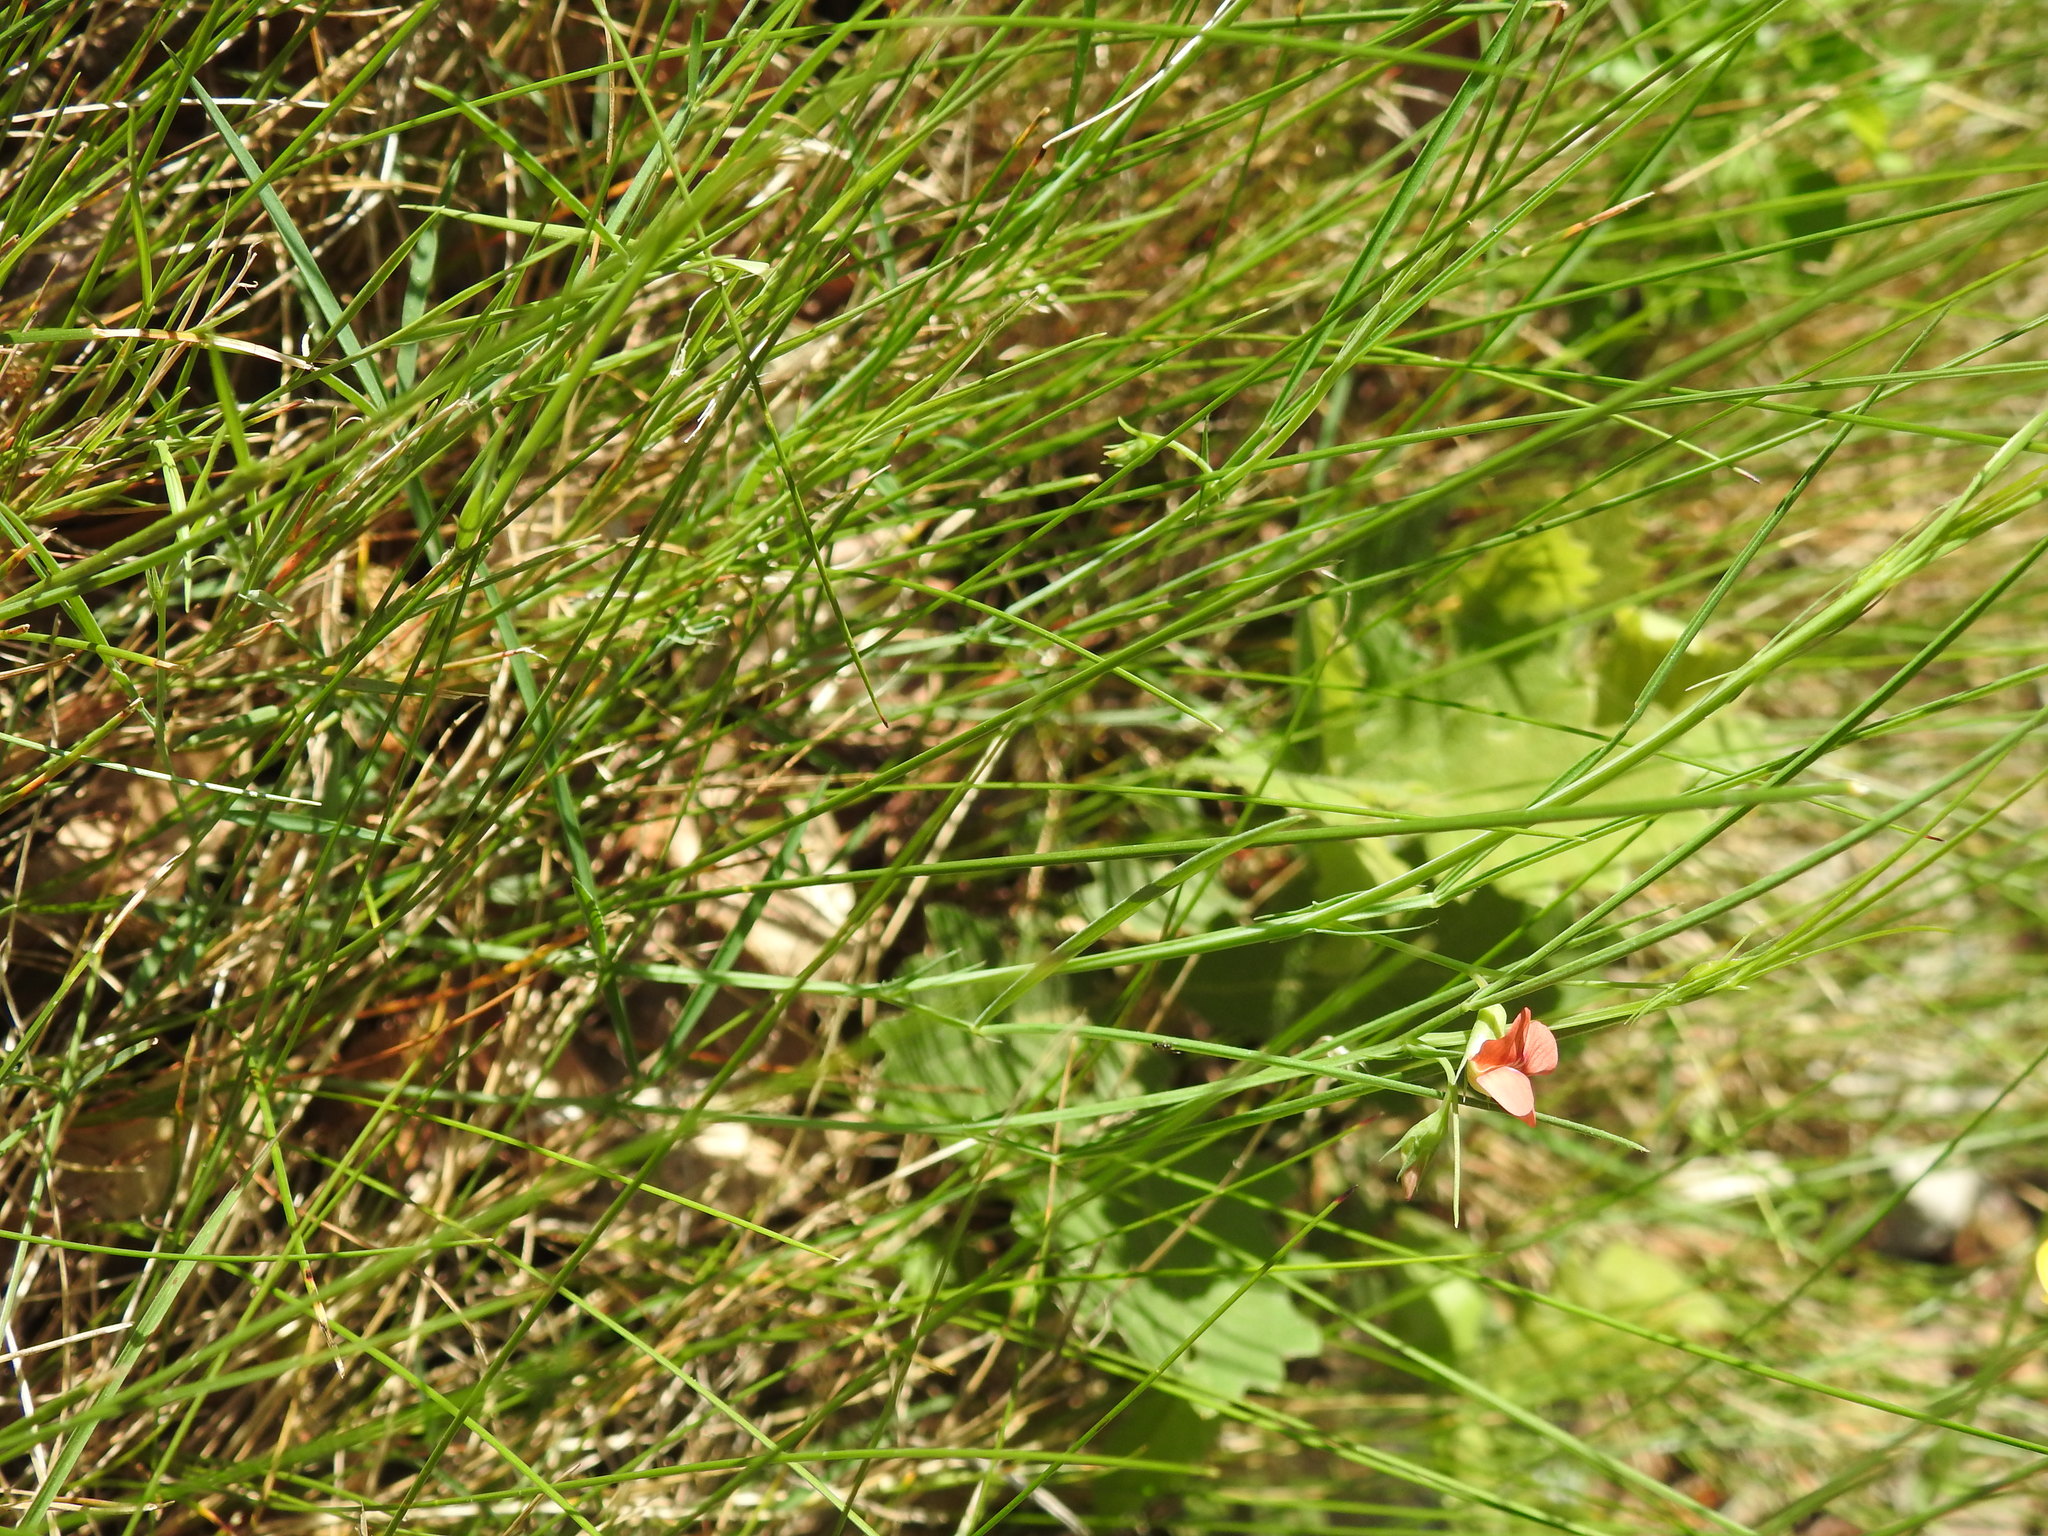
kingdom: Plantae
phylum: Tracheophyta
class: Magnoliopsida
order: Fabales
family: Fabaceae
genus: Lathyrus
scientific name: Lathyrus sphaericus
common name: Grass pea
